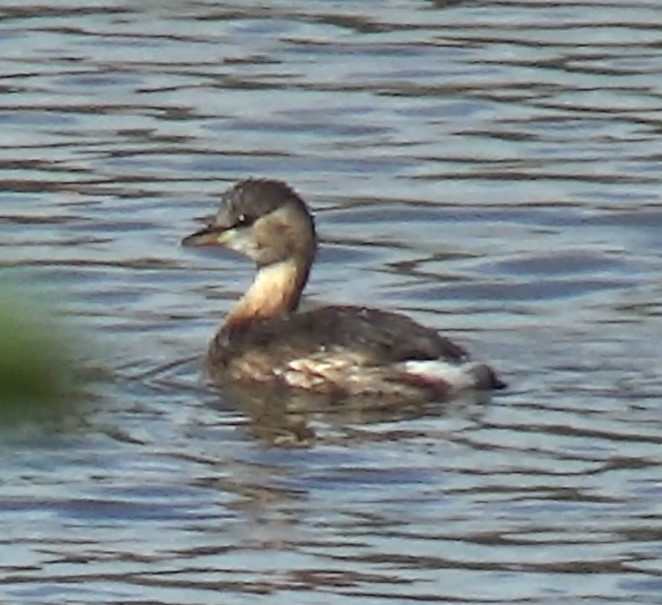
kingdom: Animalia
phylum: Chordata
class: Aves
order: Podicipediformes
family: Podicipedidae
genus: Tachybaptus
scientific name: Tachybaptus ruficollis
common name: Little grebe
